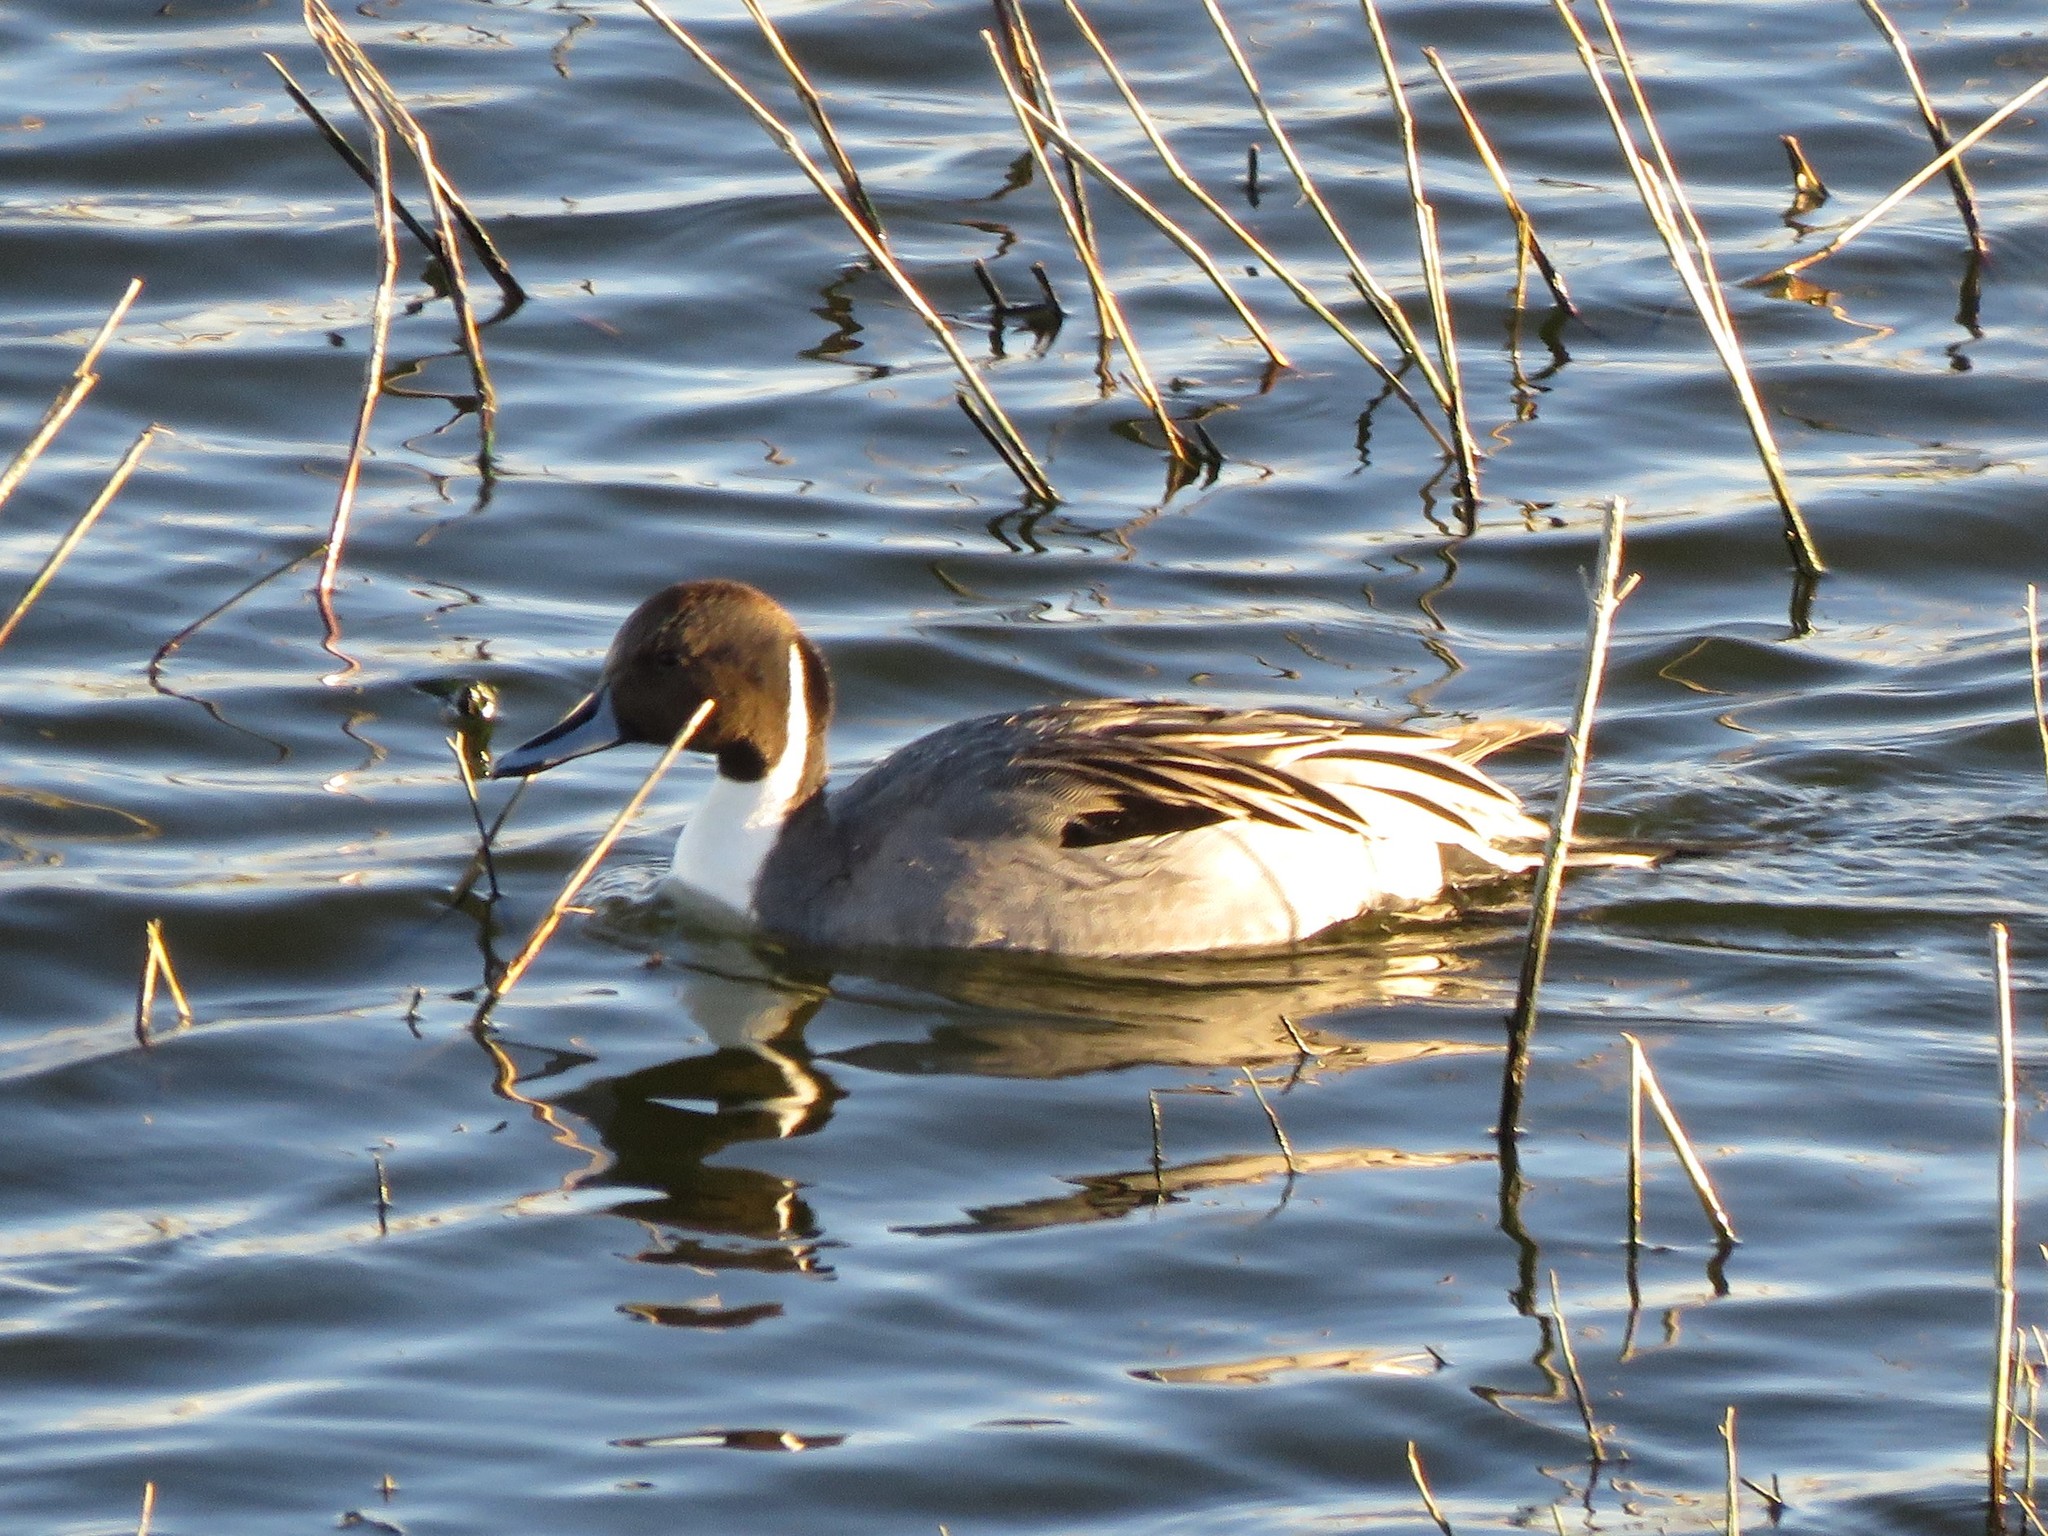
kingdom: Animalia
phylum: Chordata
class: Aves
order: Anseriformes
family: Anatidae
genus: Anas
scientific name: Anas acuta
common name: Northern pintail
